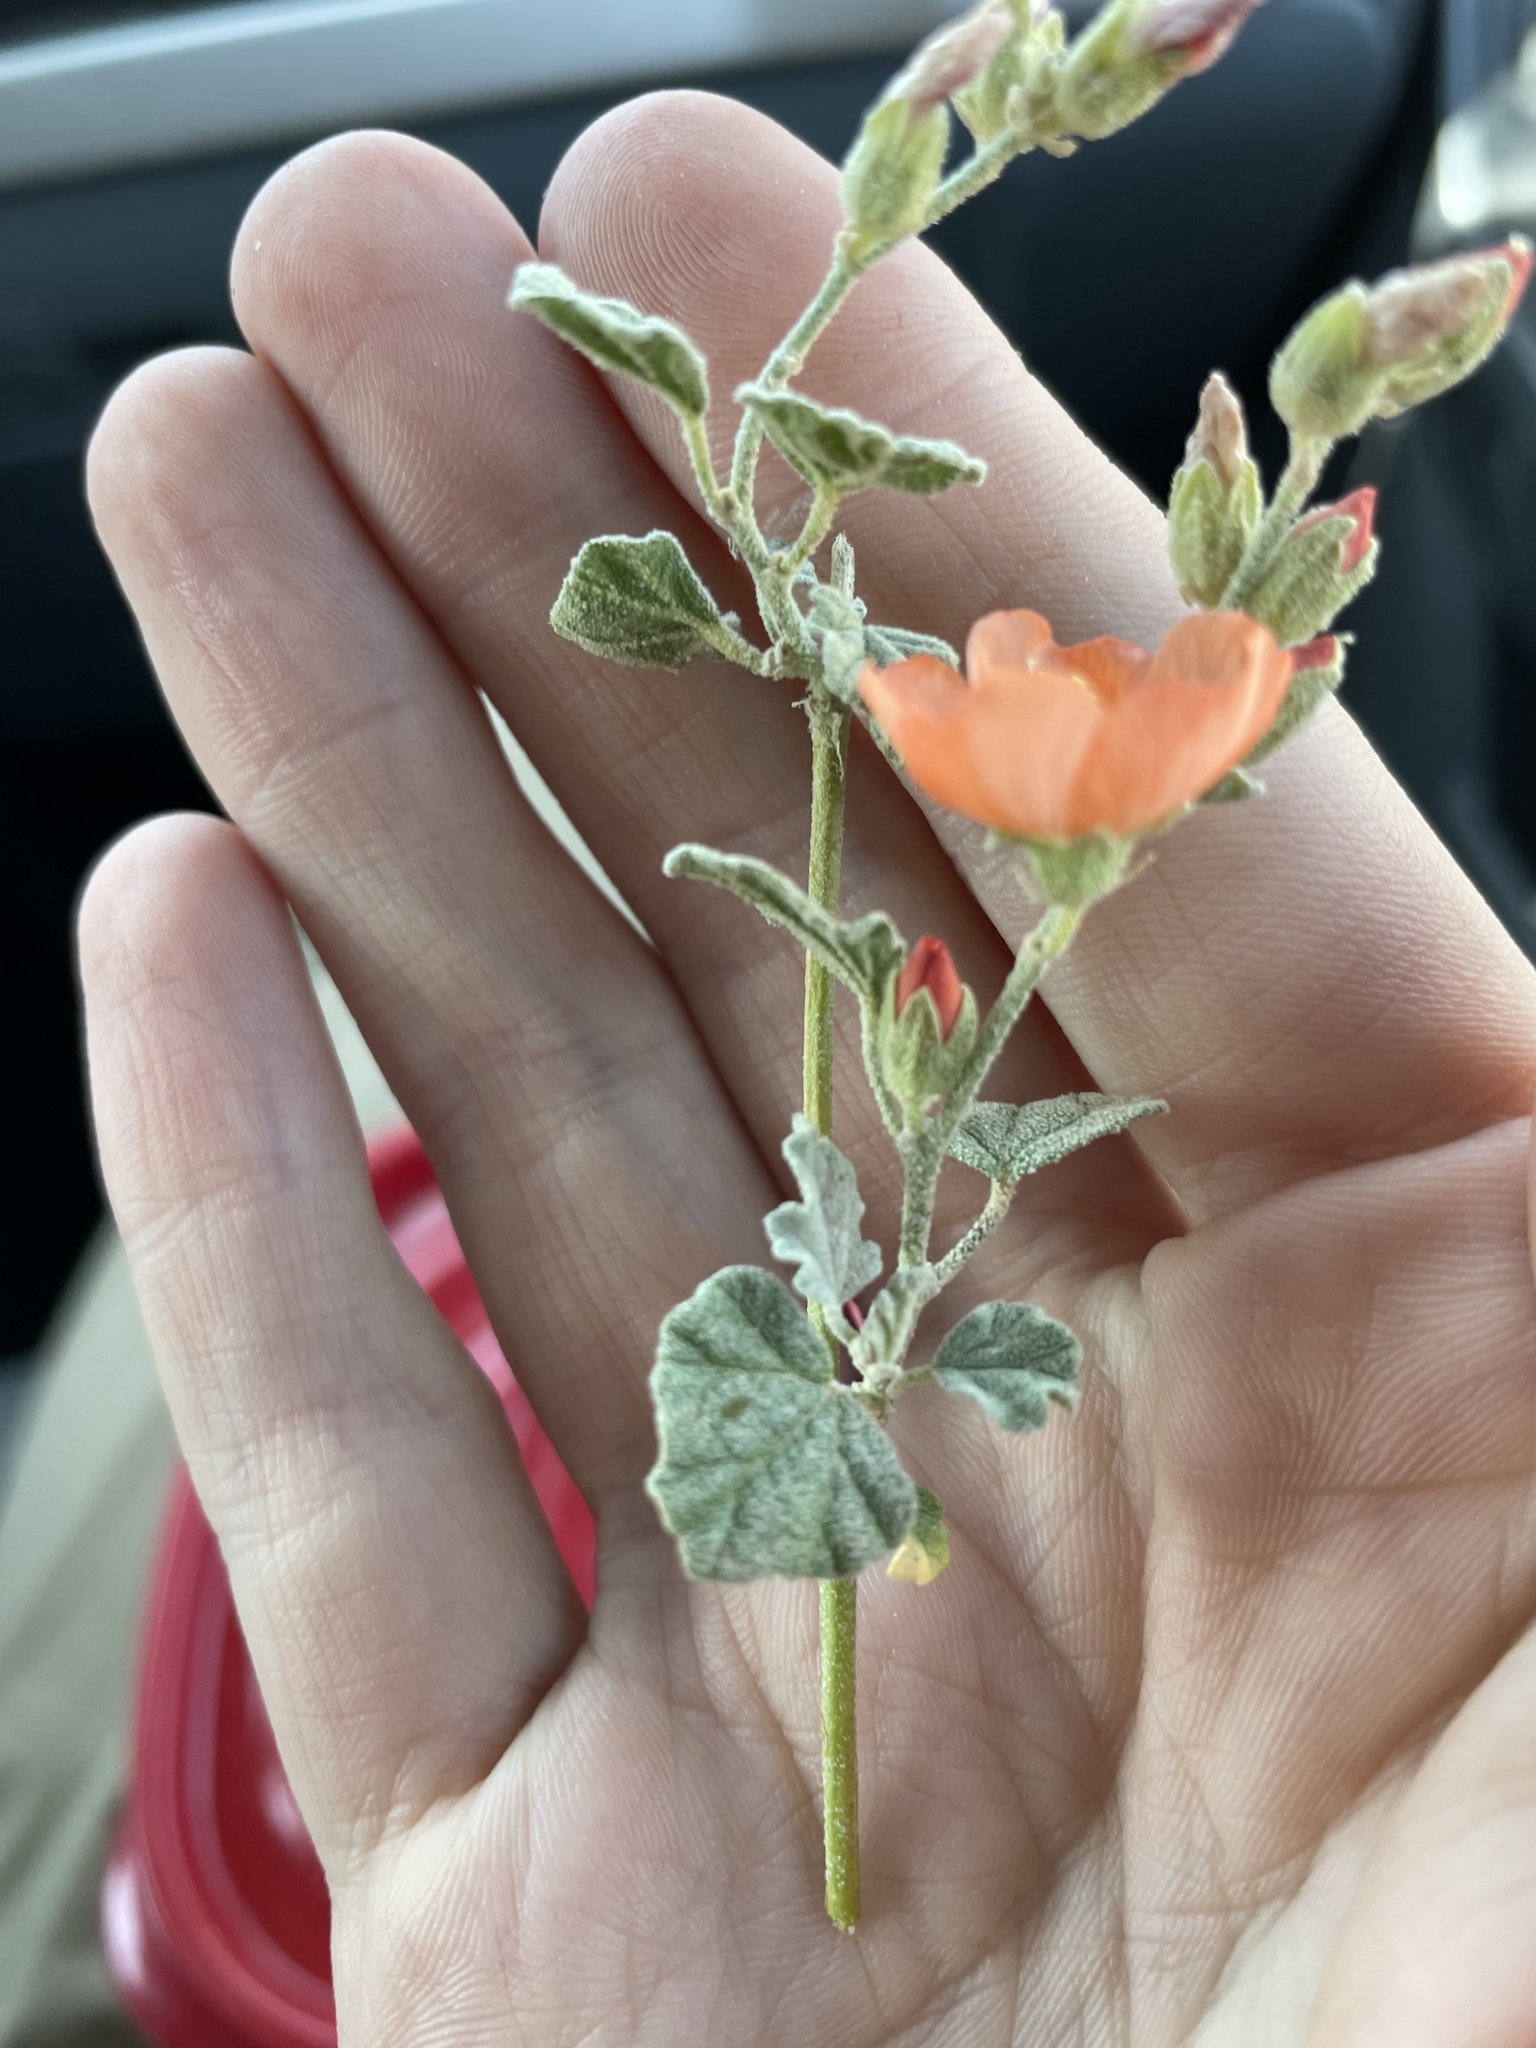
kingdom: Plantae
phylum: Tracheophyta
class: Magnoliopsida
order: Malvales
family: Malvaceae
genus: Sphaeralcea
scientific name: Sphaeralcea parvifolia
